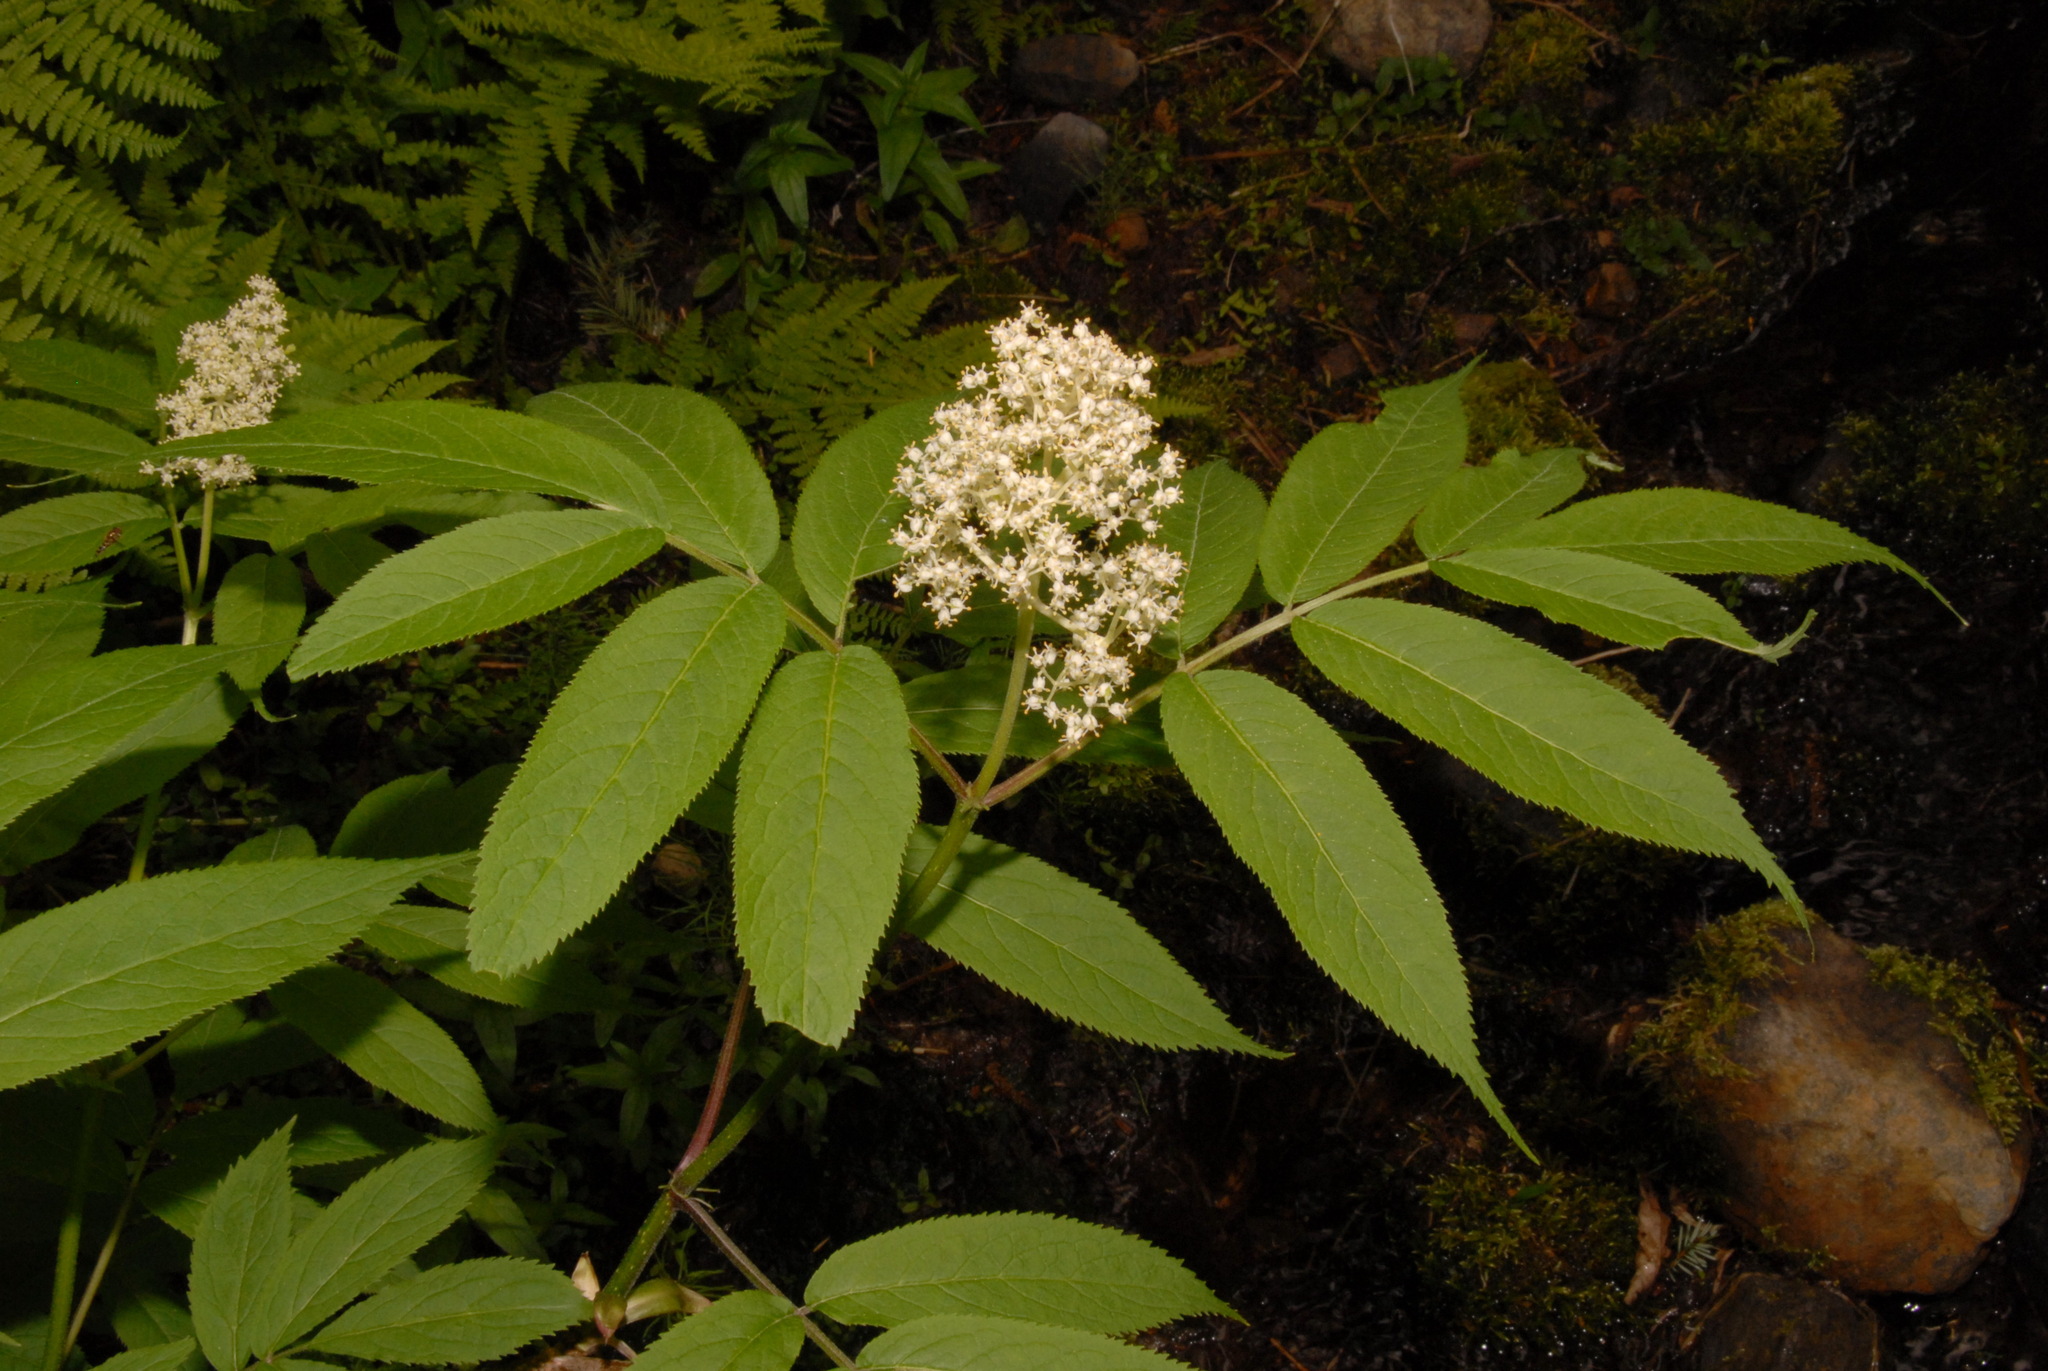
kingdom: Plantae
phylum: Tracheophyta
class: Magnoliopsida
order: Dipsacales
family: Viburnaceae
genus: Sambucus
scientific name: Sambucus racemosa
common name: Red-berried elder
